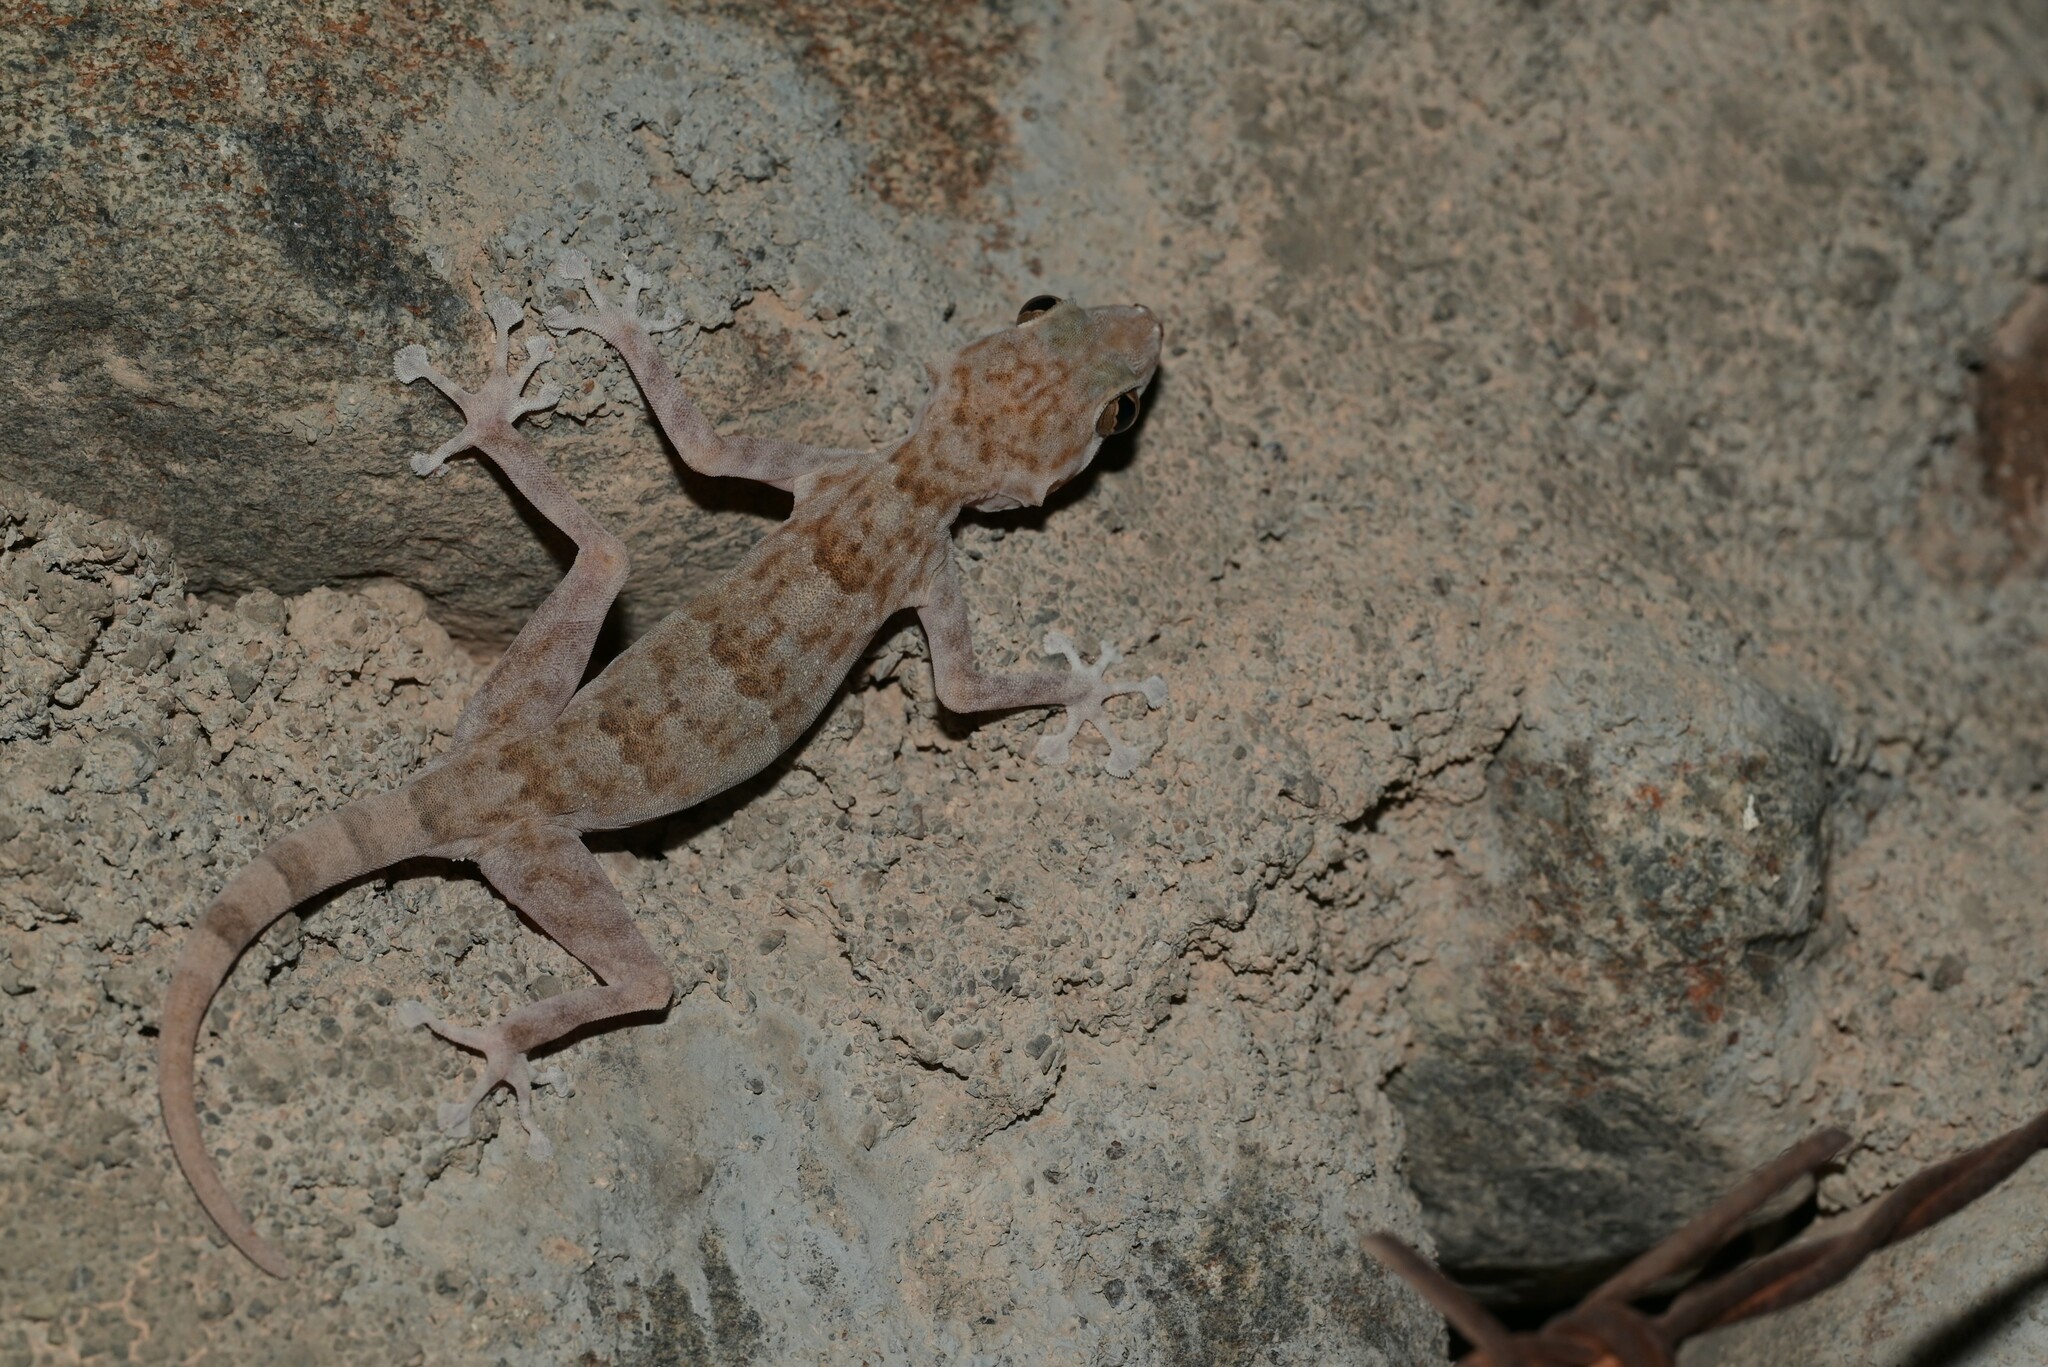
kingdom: Animalia
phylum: Chordata
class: Squamata
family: Phyllodactylidae
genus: Ptyodactylus
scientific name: Ptyodactylus orlovi
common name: Orlov's fan-footed gecko
